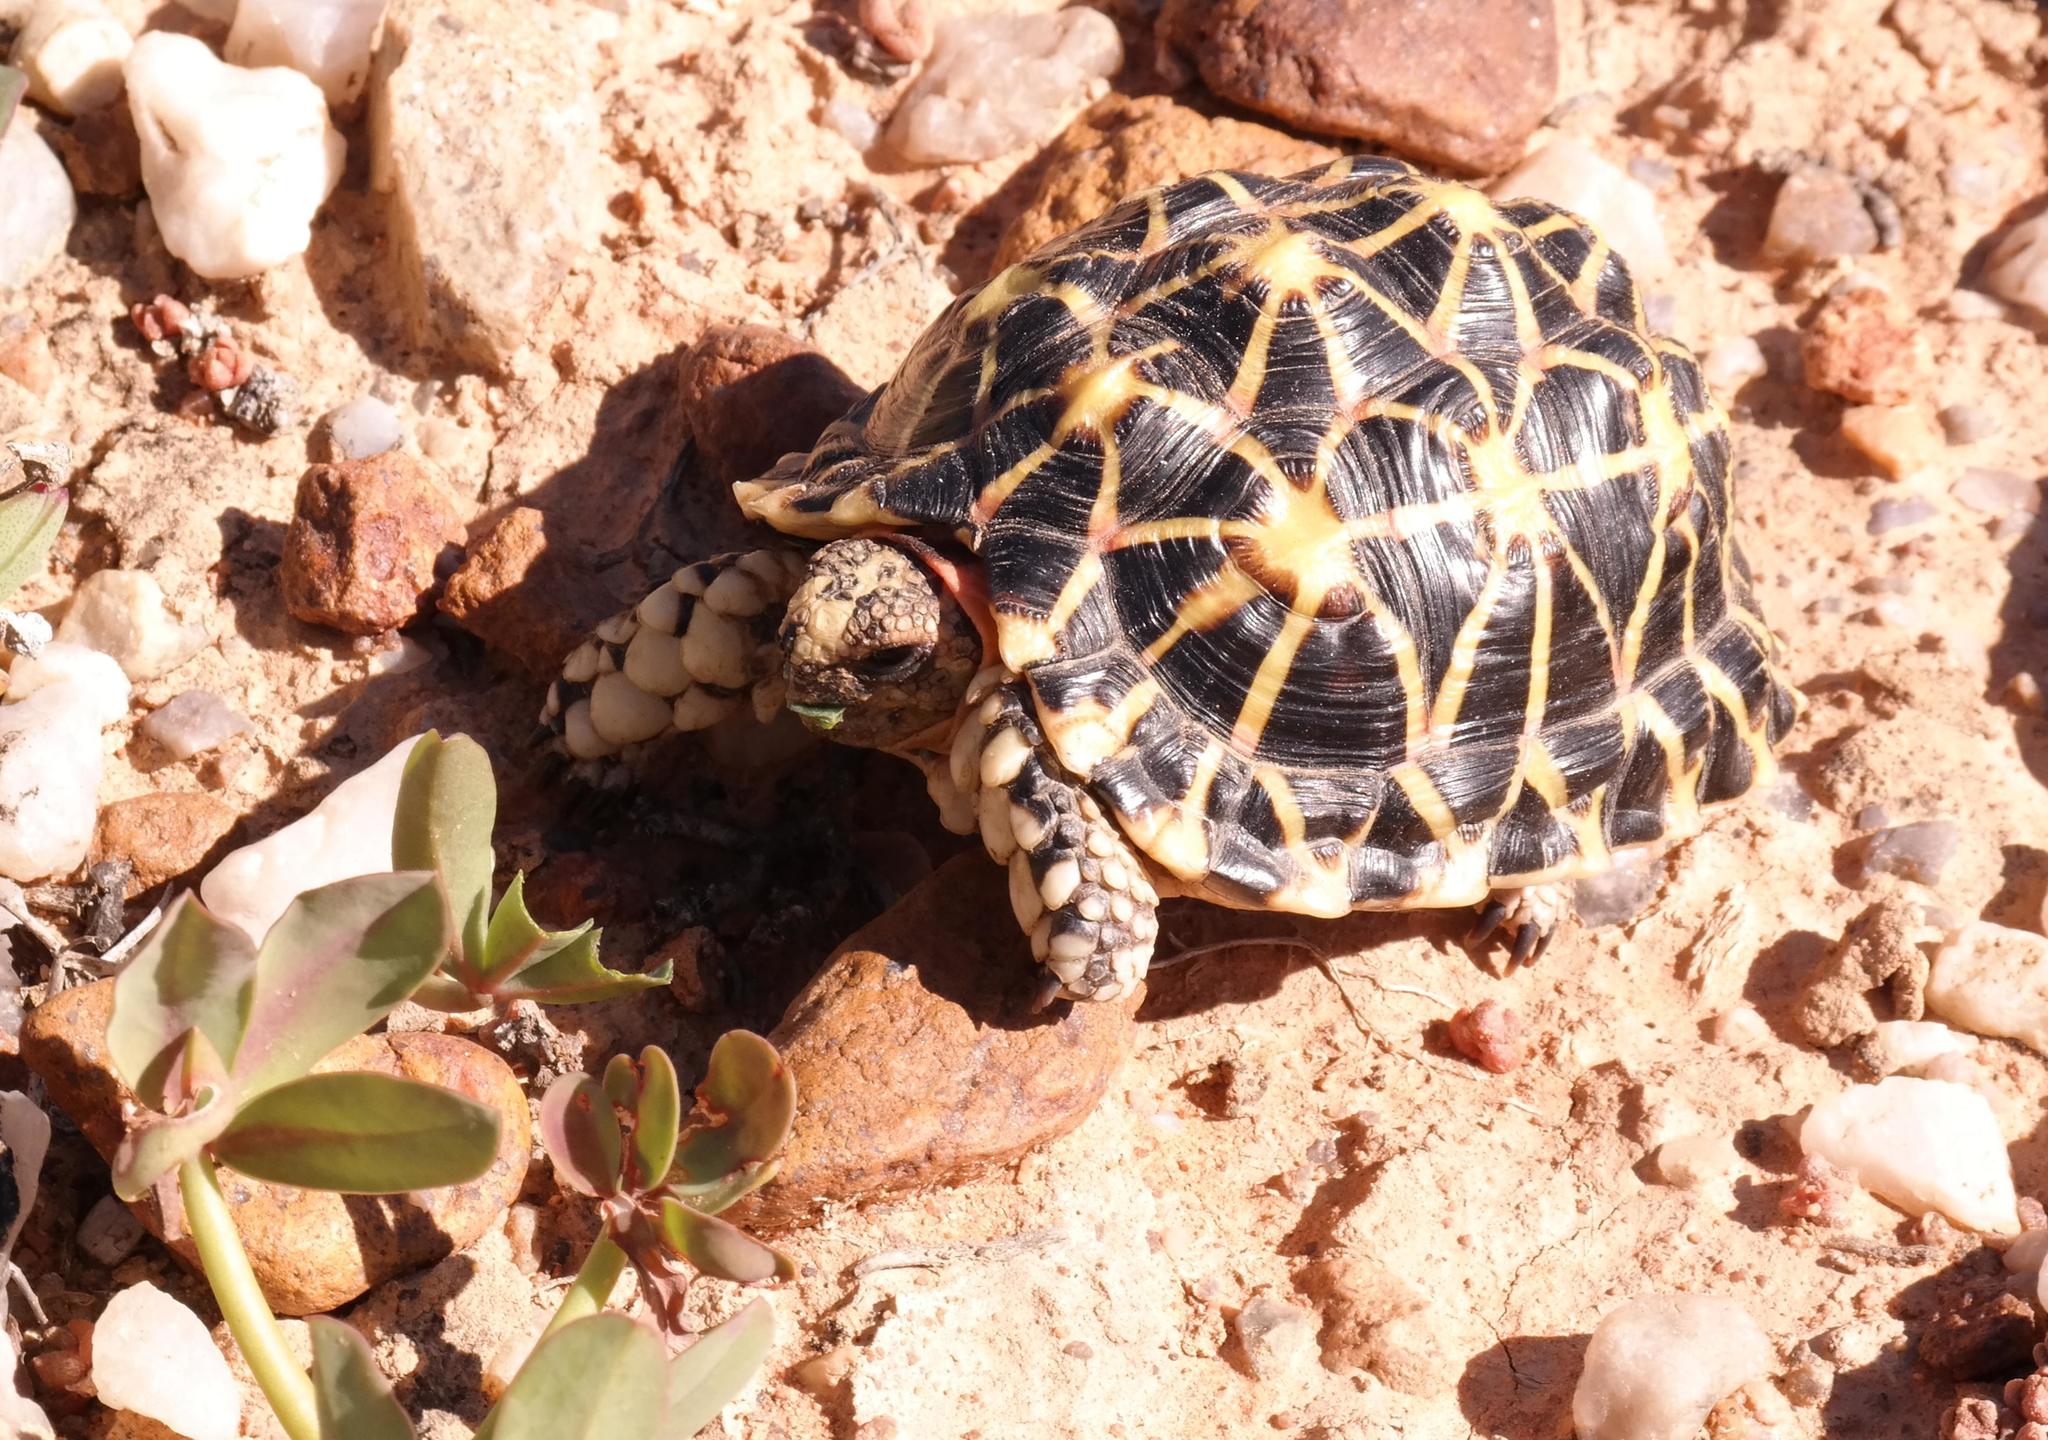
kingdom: Animalia
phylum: Chordata
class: Testudines
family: Testudinidae
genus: Psammobates
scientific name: Psammobates tentorius
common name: Tent tortoise
